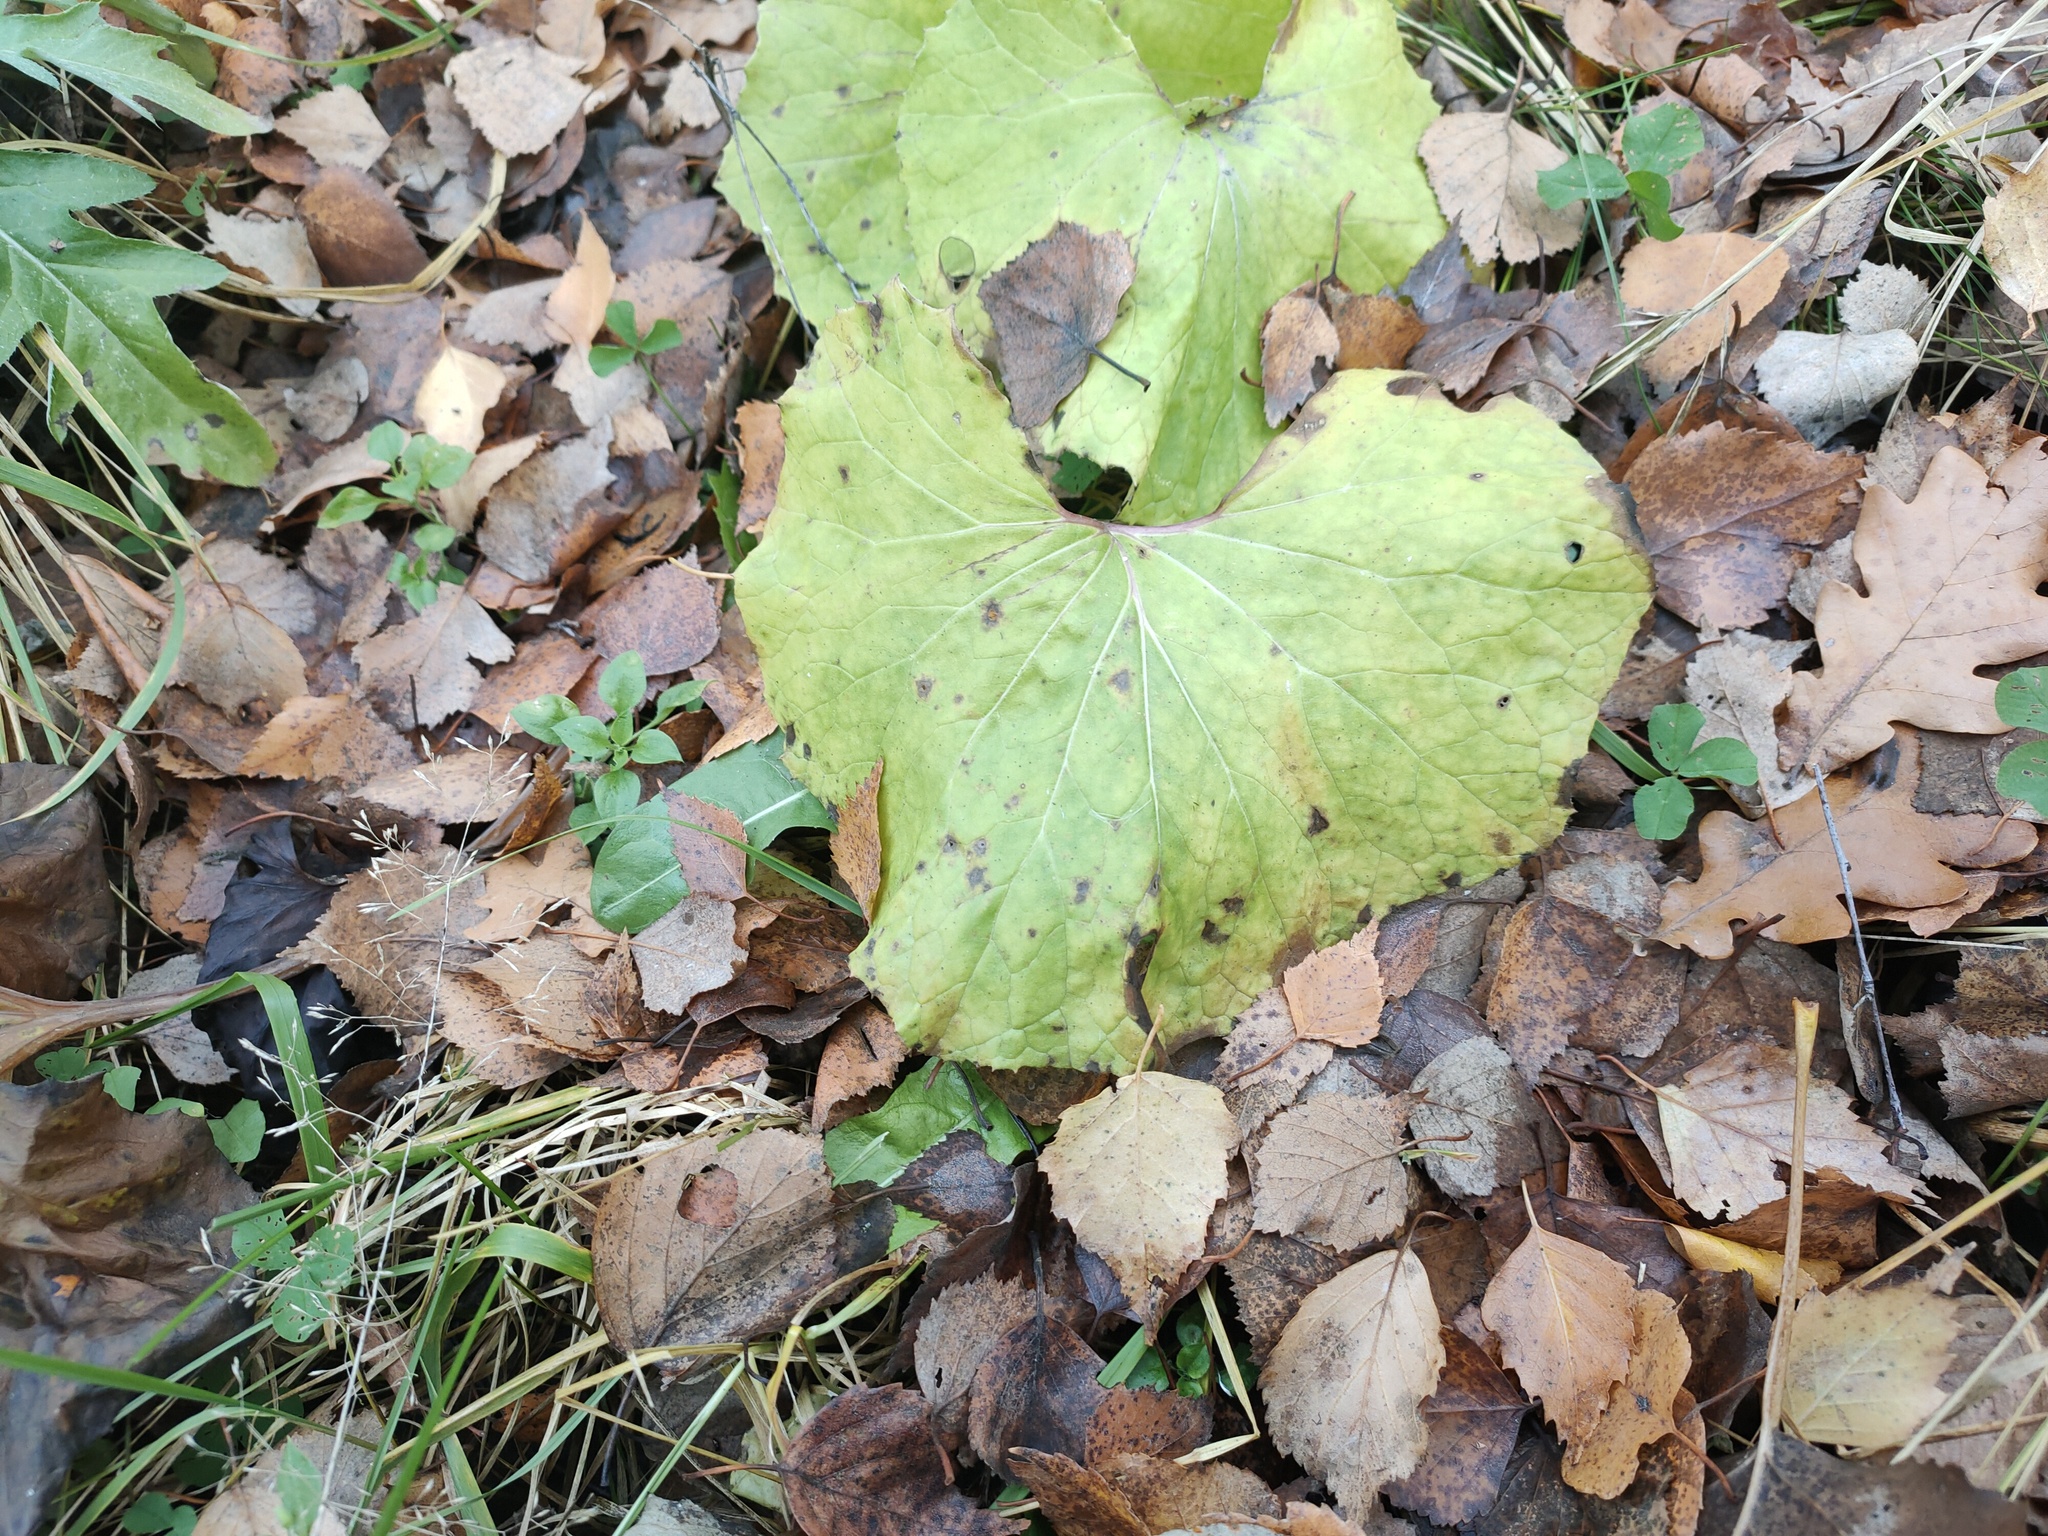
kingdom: Plantae
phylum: Tracheophyta
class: Magnoliopsida
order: Asterales
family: Asteraceae
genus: Tussilago
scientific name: Tussilago farfara
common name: Coltsfoot
